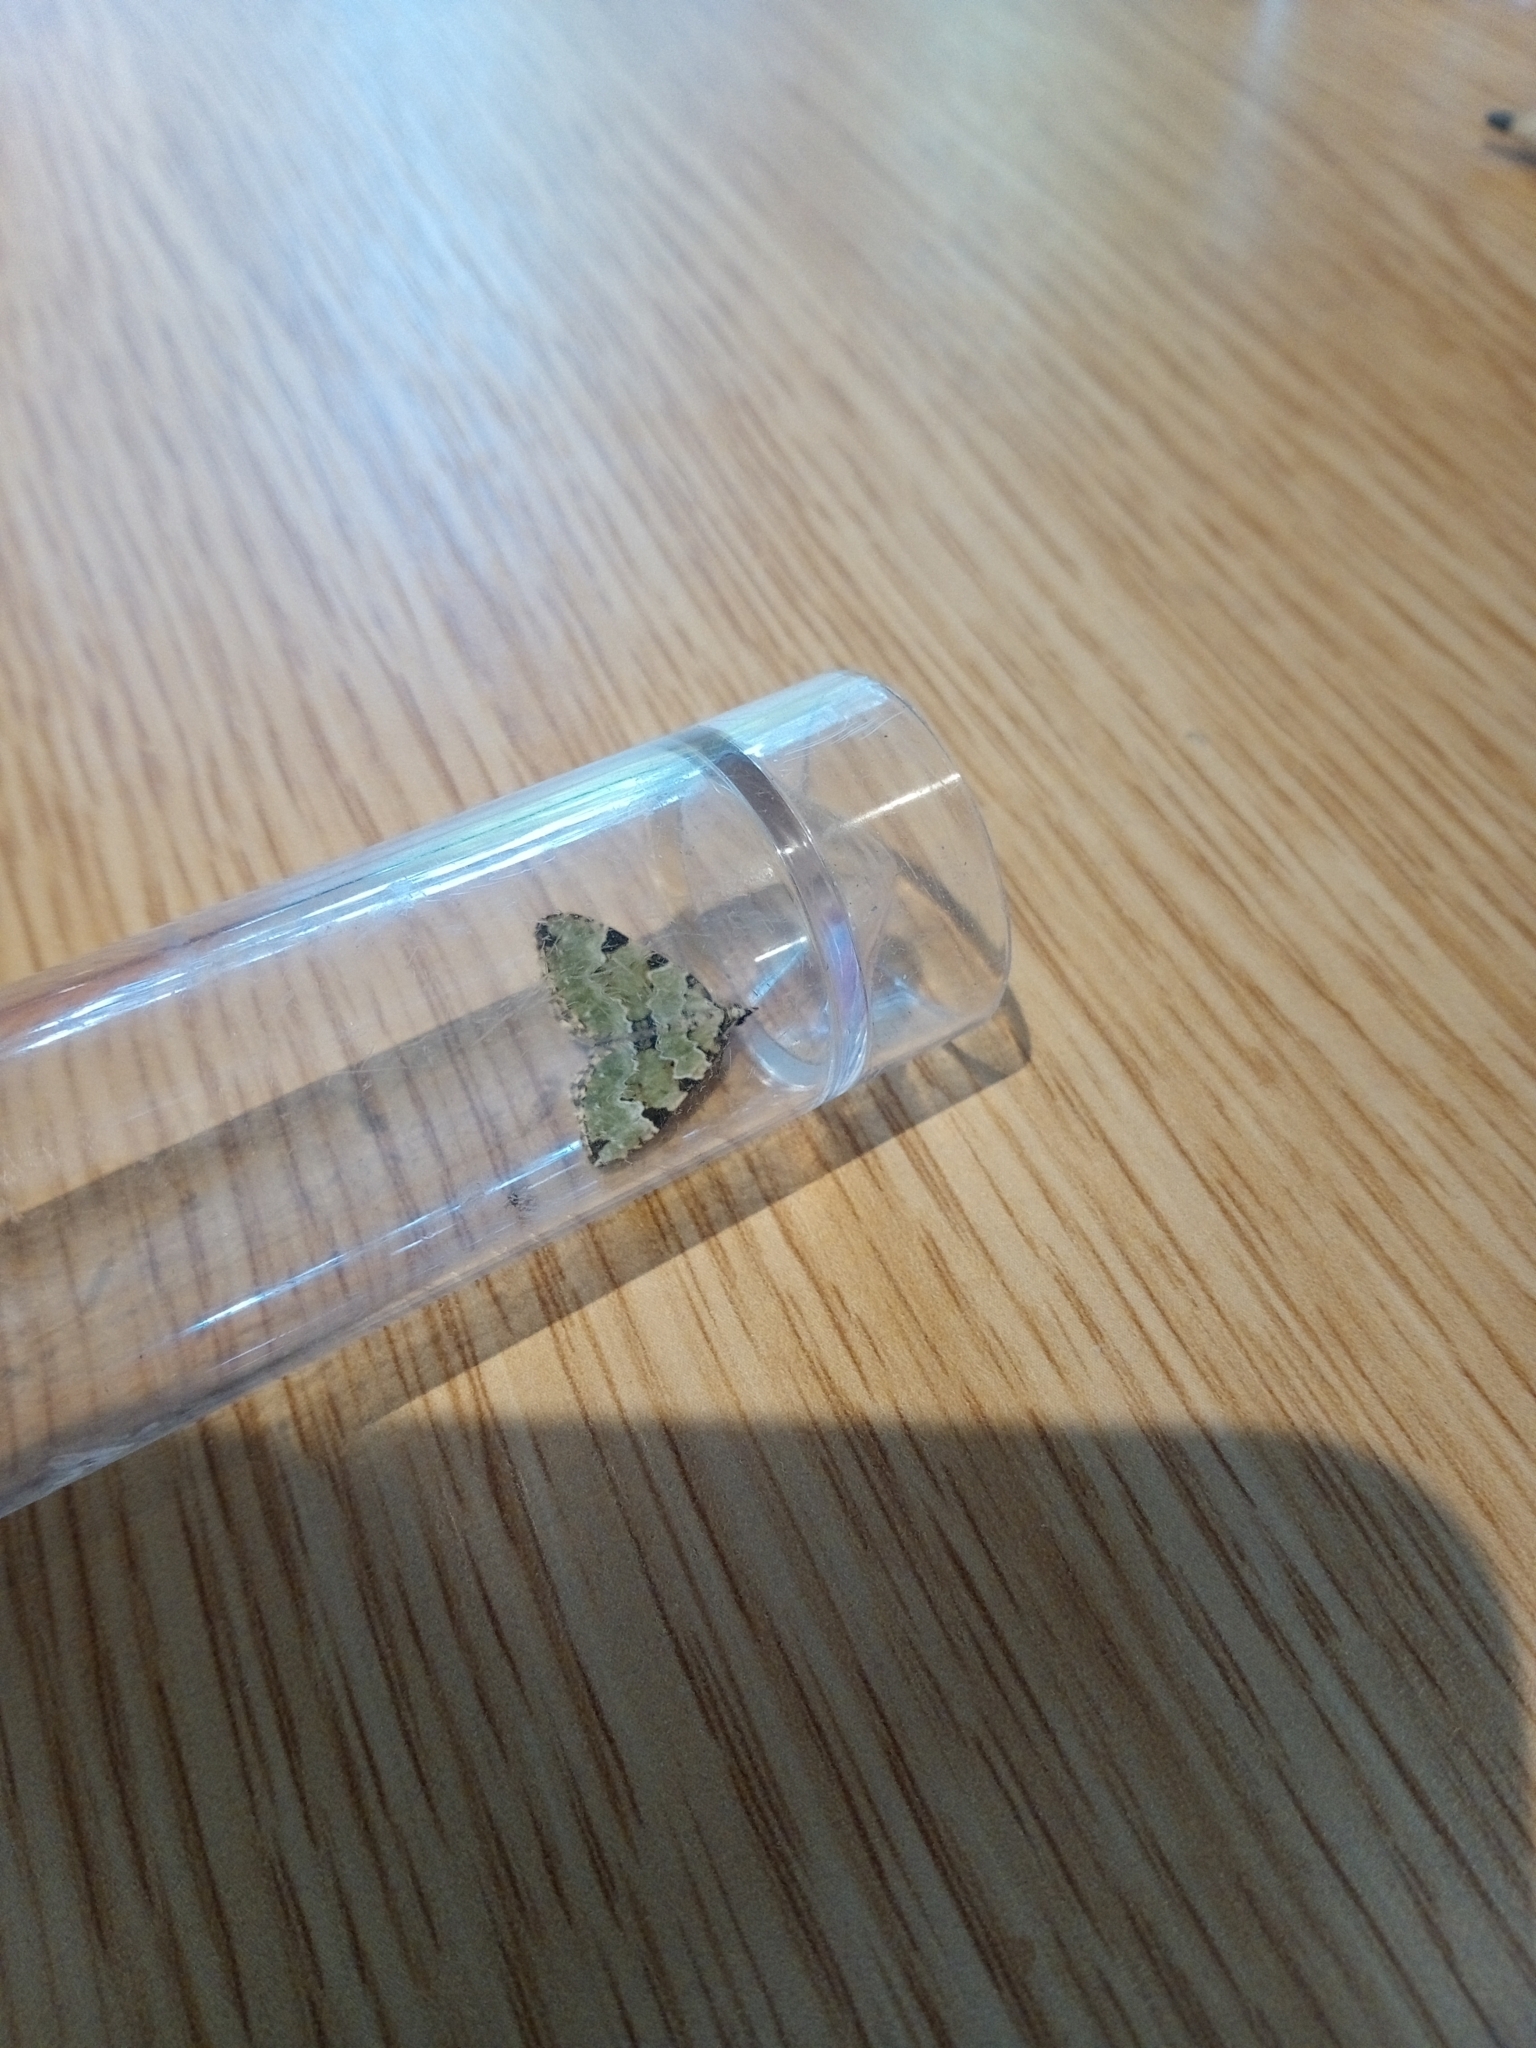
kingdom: Animalia
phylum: Arthropoda
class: Insecta
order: Lepidoptera
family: Geometridae
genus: Colostygia
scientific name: Colostygia pectinataria
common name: Green carpet
